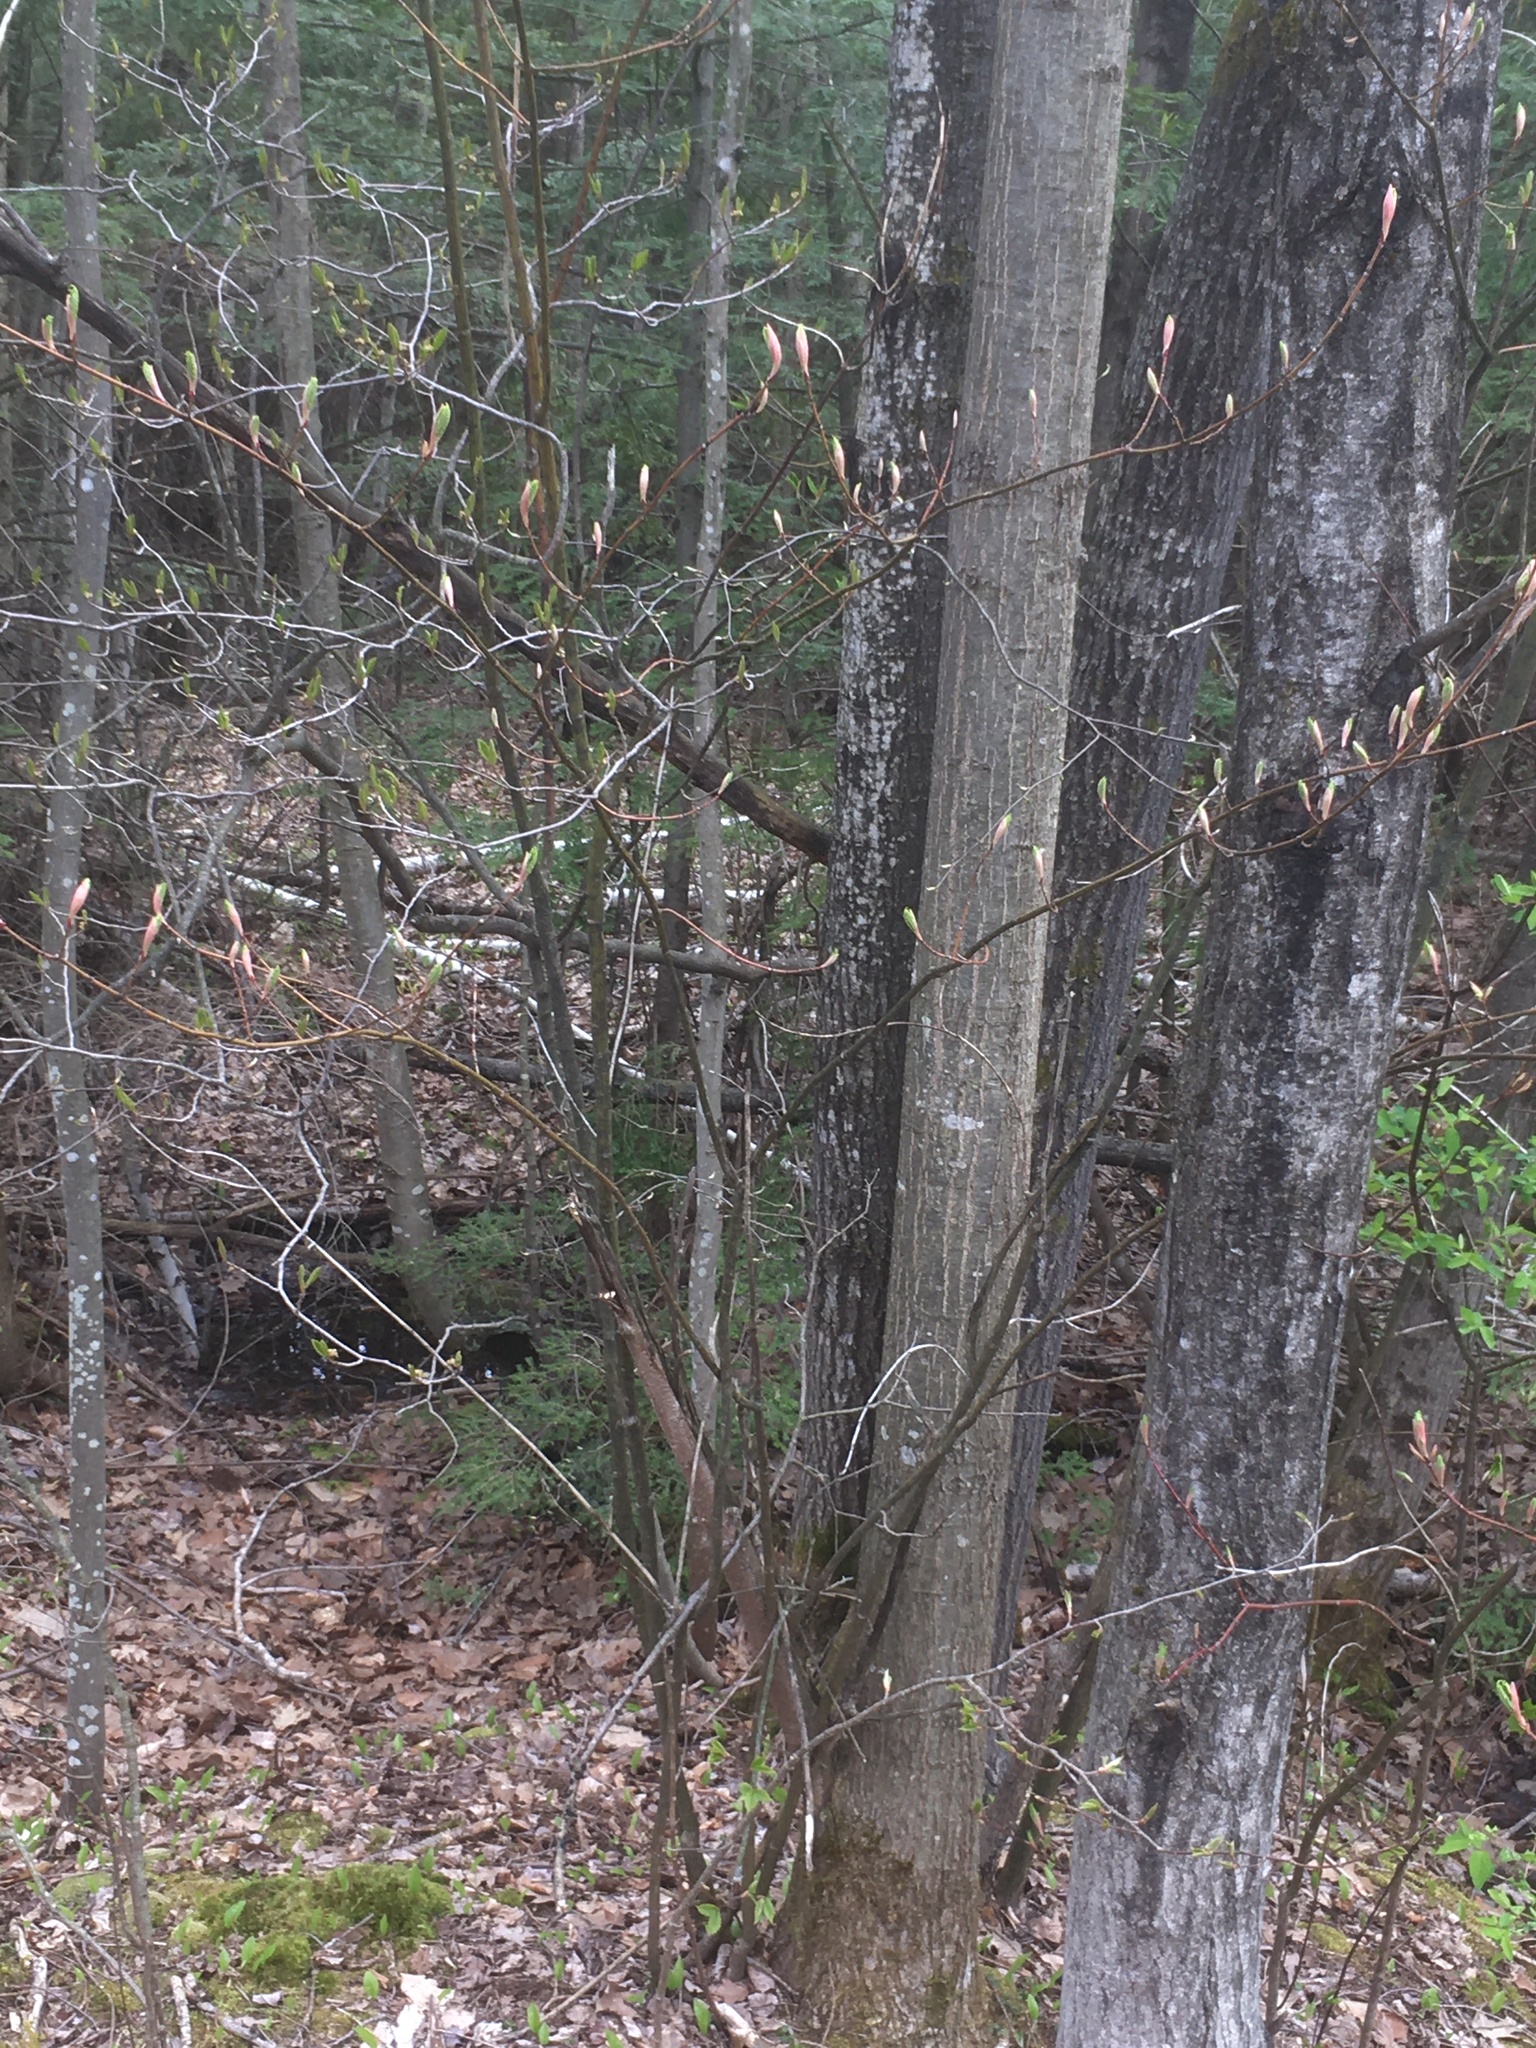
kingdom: Plantae
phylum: Tracheophyta
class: Magnoliopsida
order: Sapindales
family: Sapindaceae
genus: Acer
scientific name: Acer pensylvanicum
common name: Moosewood
